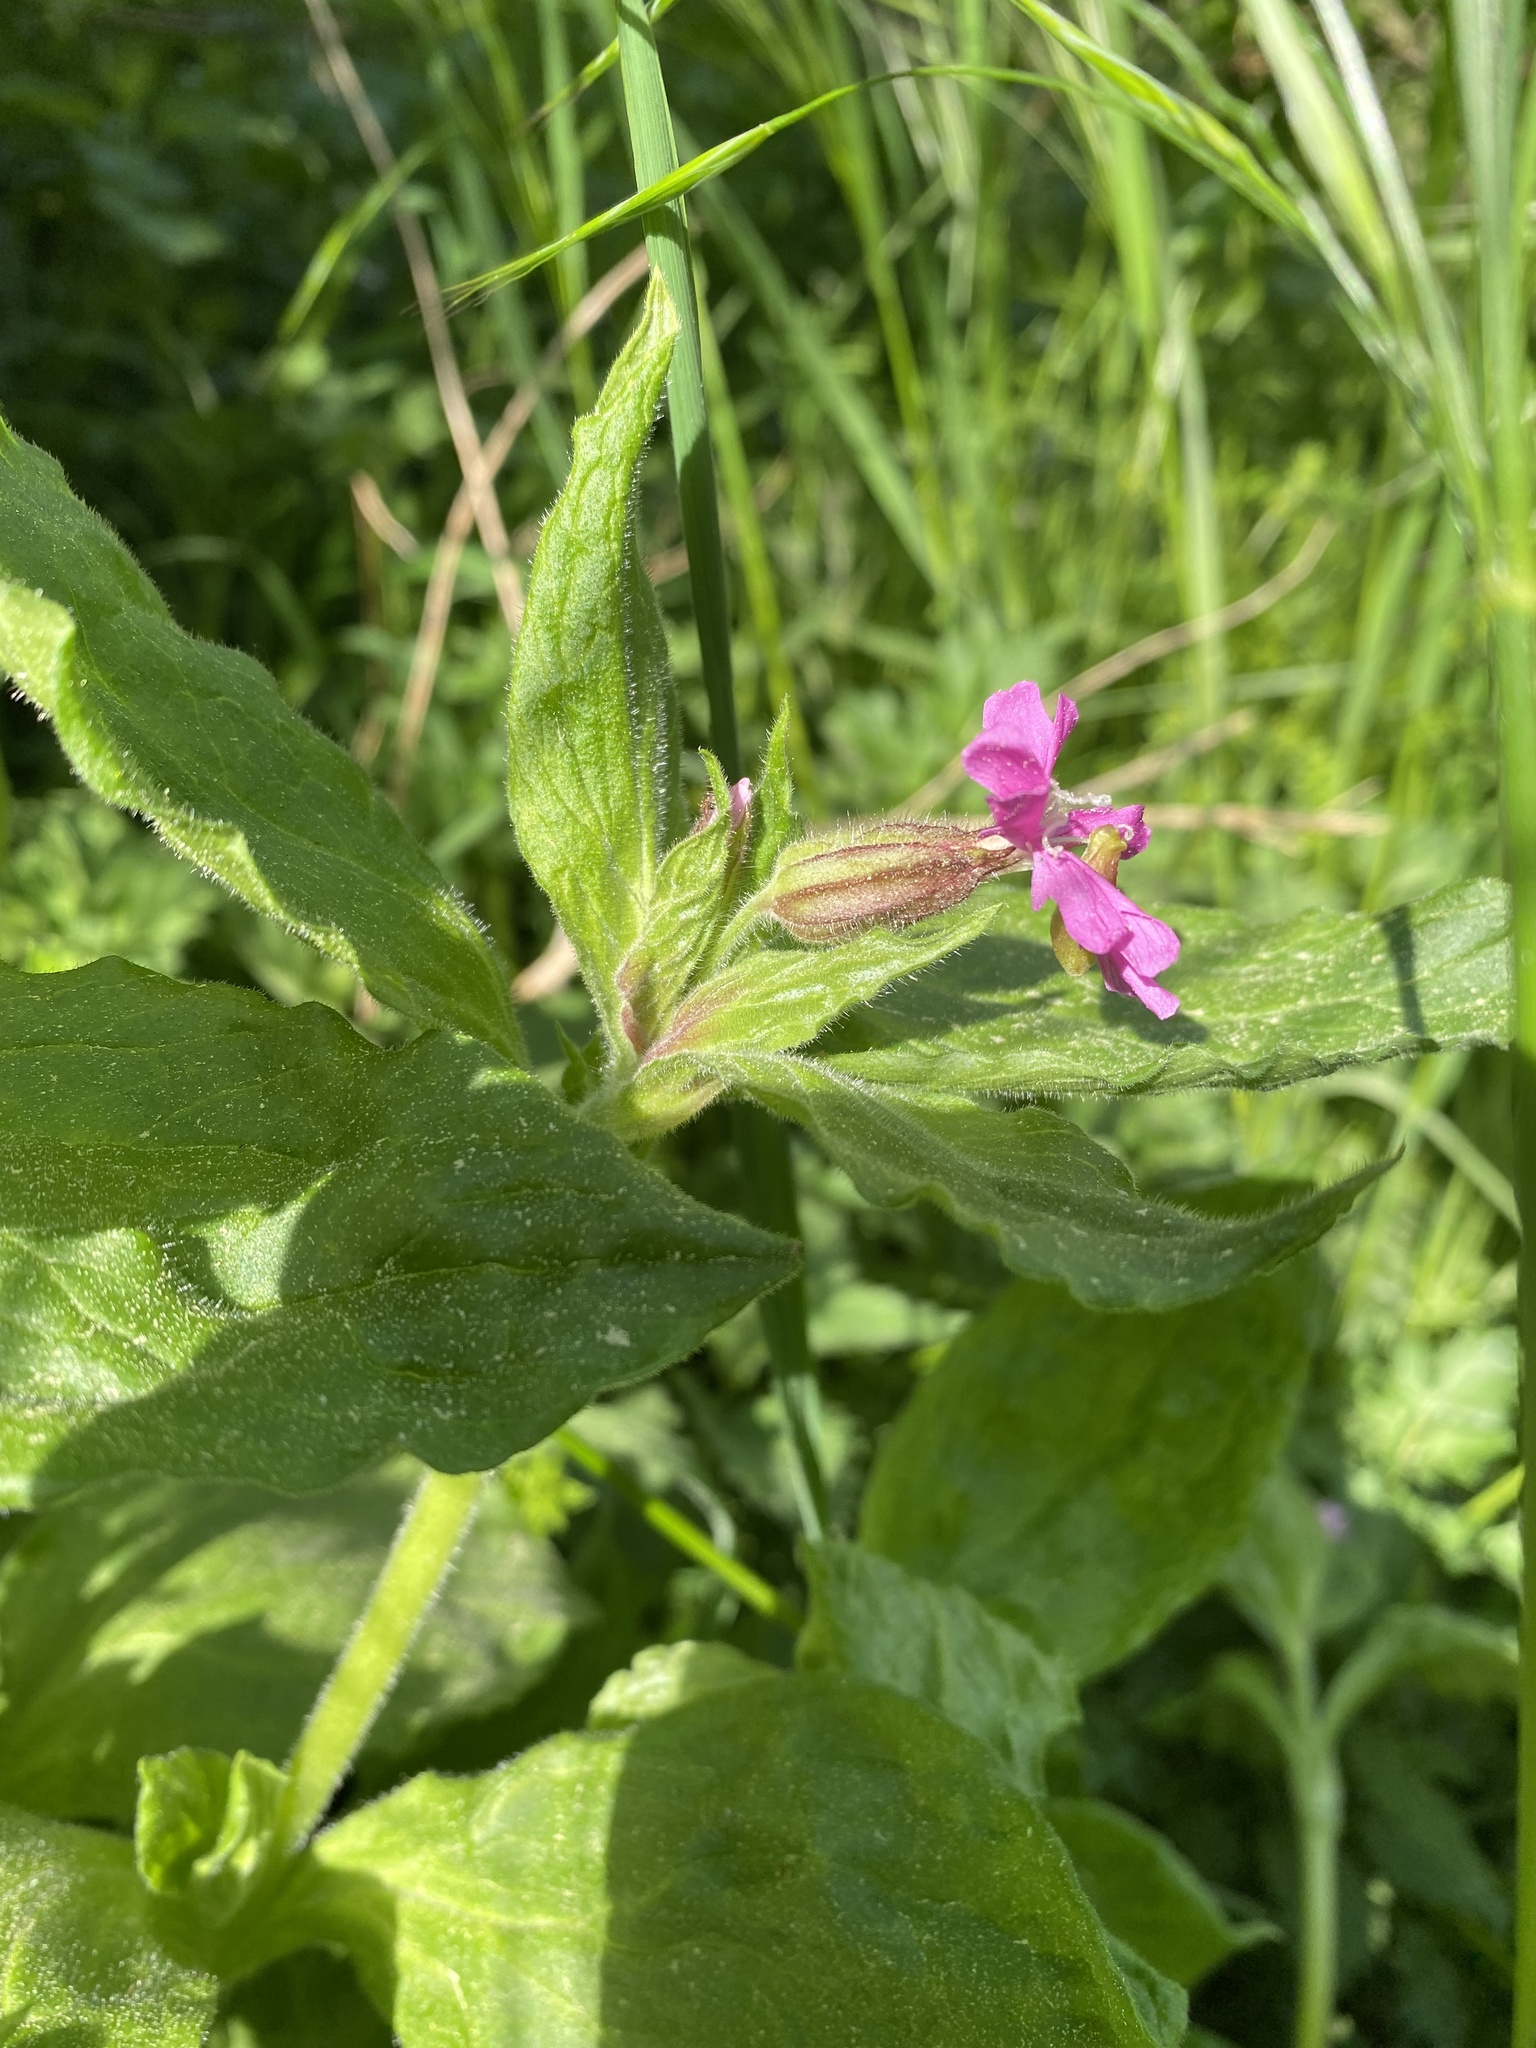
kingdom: Plantae
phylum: Tracheophyta
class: Magnoliopsida
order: Caryophyllales
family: Caryophyllaceae
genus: Silene
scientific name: Silene dioica
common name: Red campion
